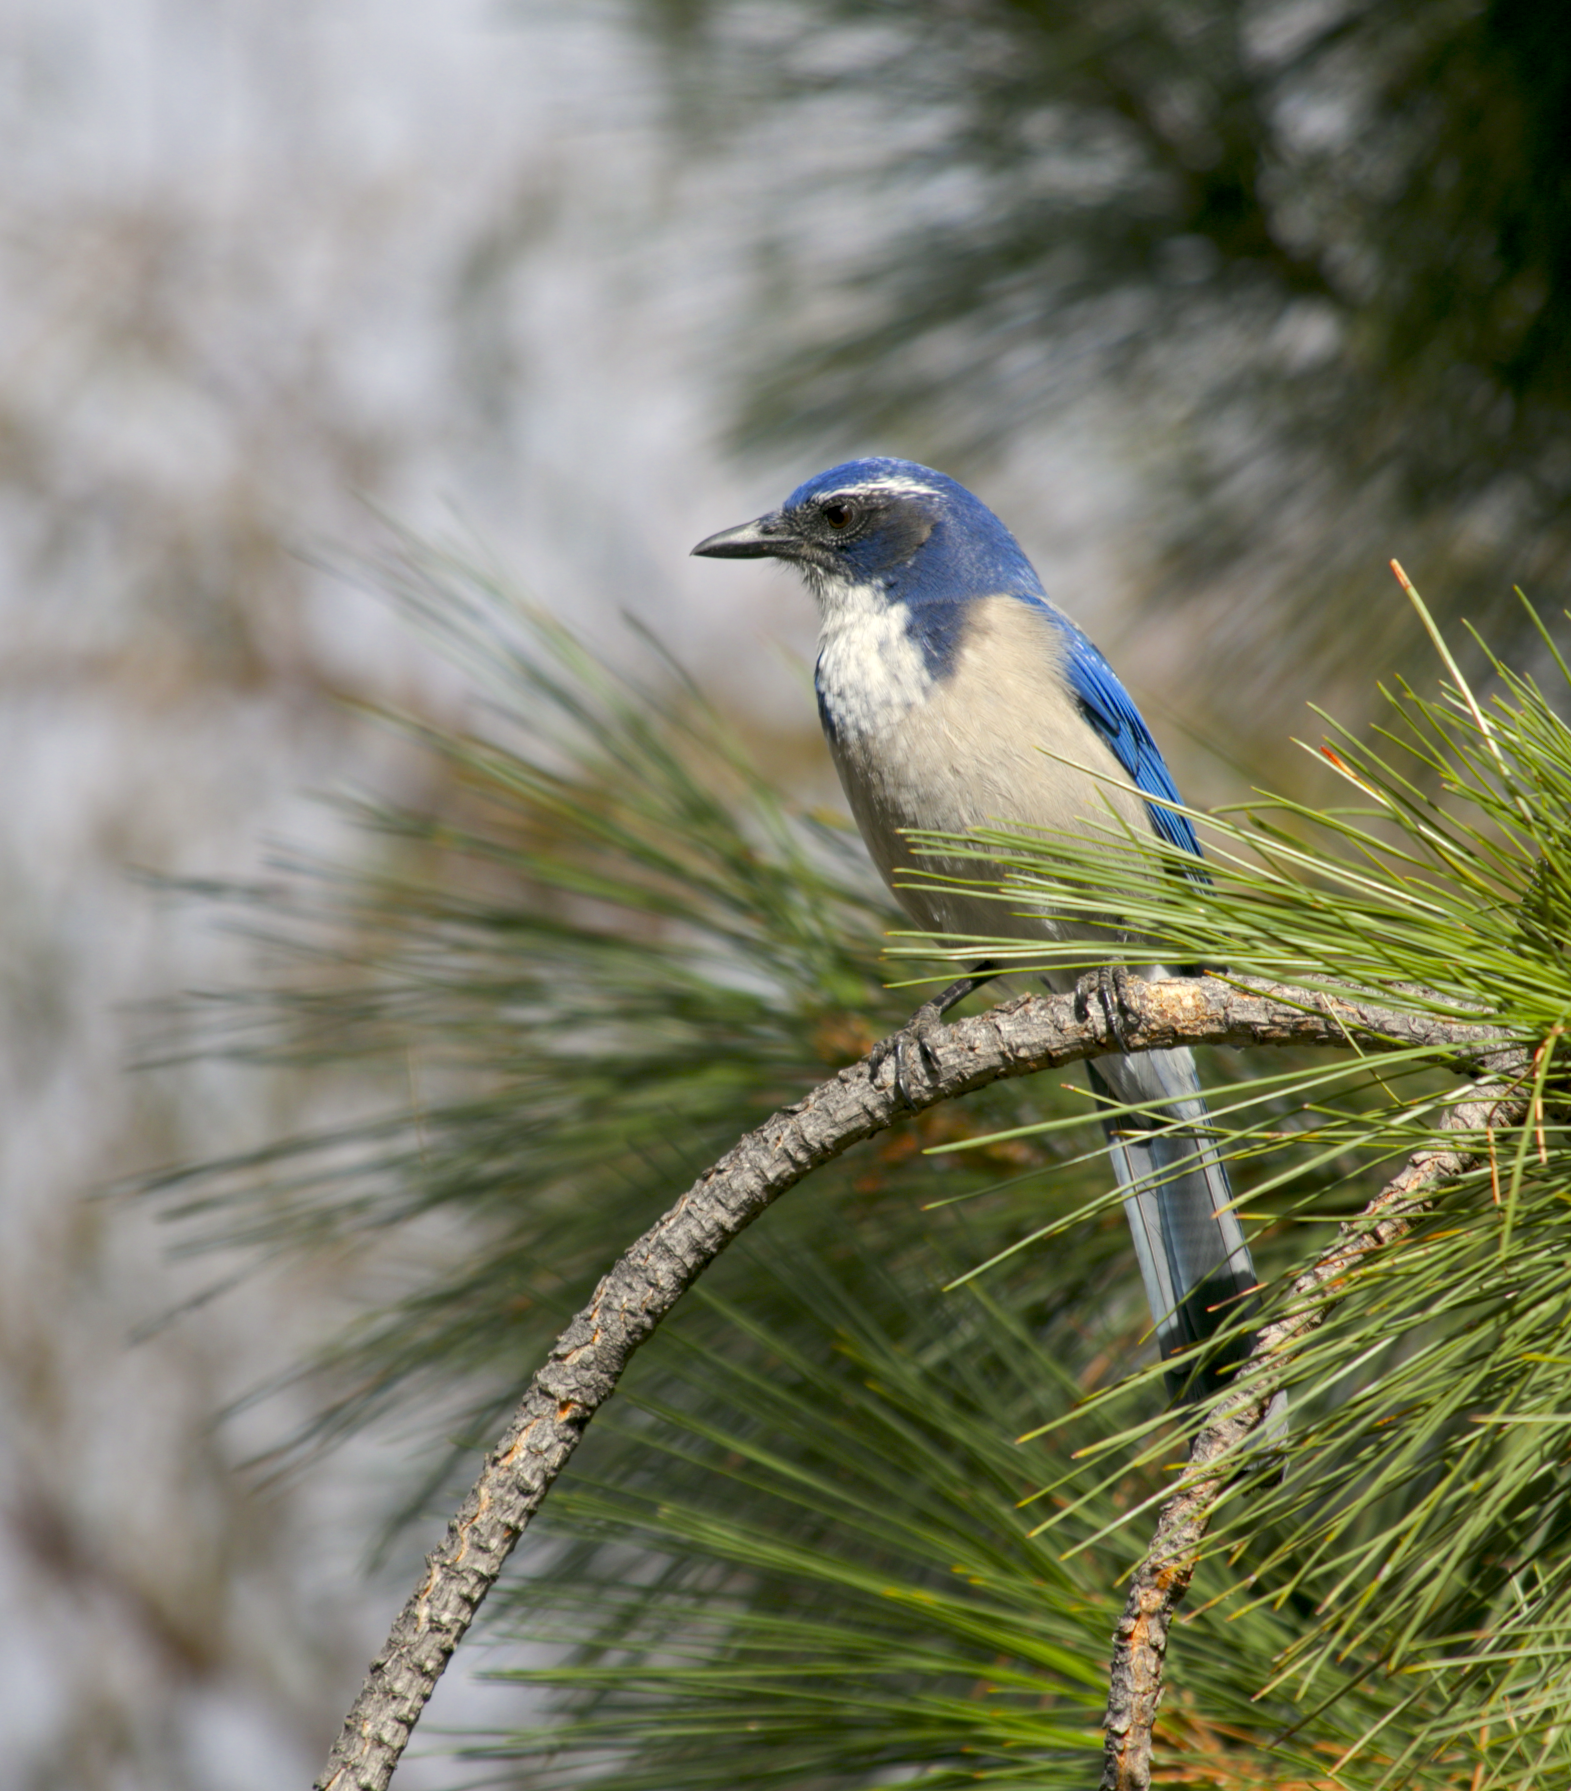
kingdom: Animalia
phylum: Chordata
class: Aves
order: Passeriformes
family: Corvidae
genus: Aphelocoma
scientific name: Aphelocoma californica
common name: California scrub-jay
